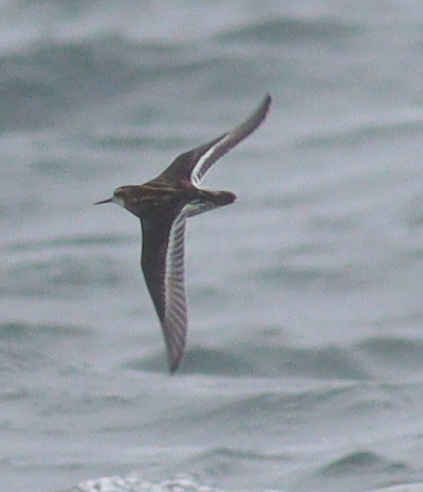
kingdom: Animalia
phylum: Chordata
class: Aves
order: Charadriiformes
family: Scolopacidae
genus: Phalaropus
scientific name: Phalaropus lobatus
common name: Red-necked phalarope
